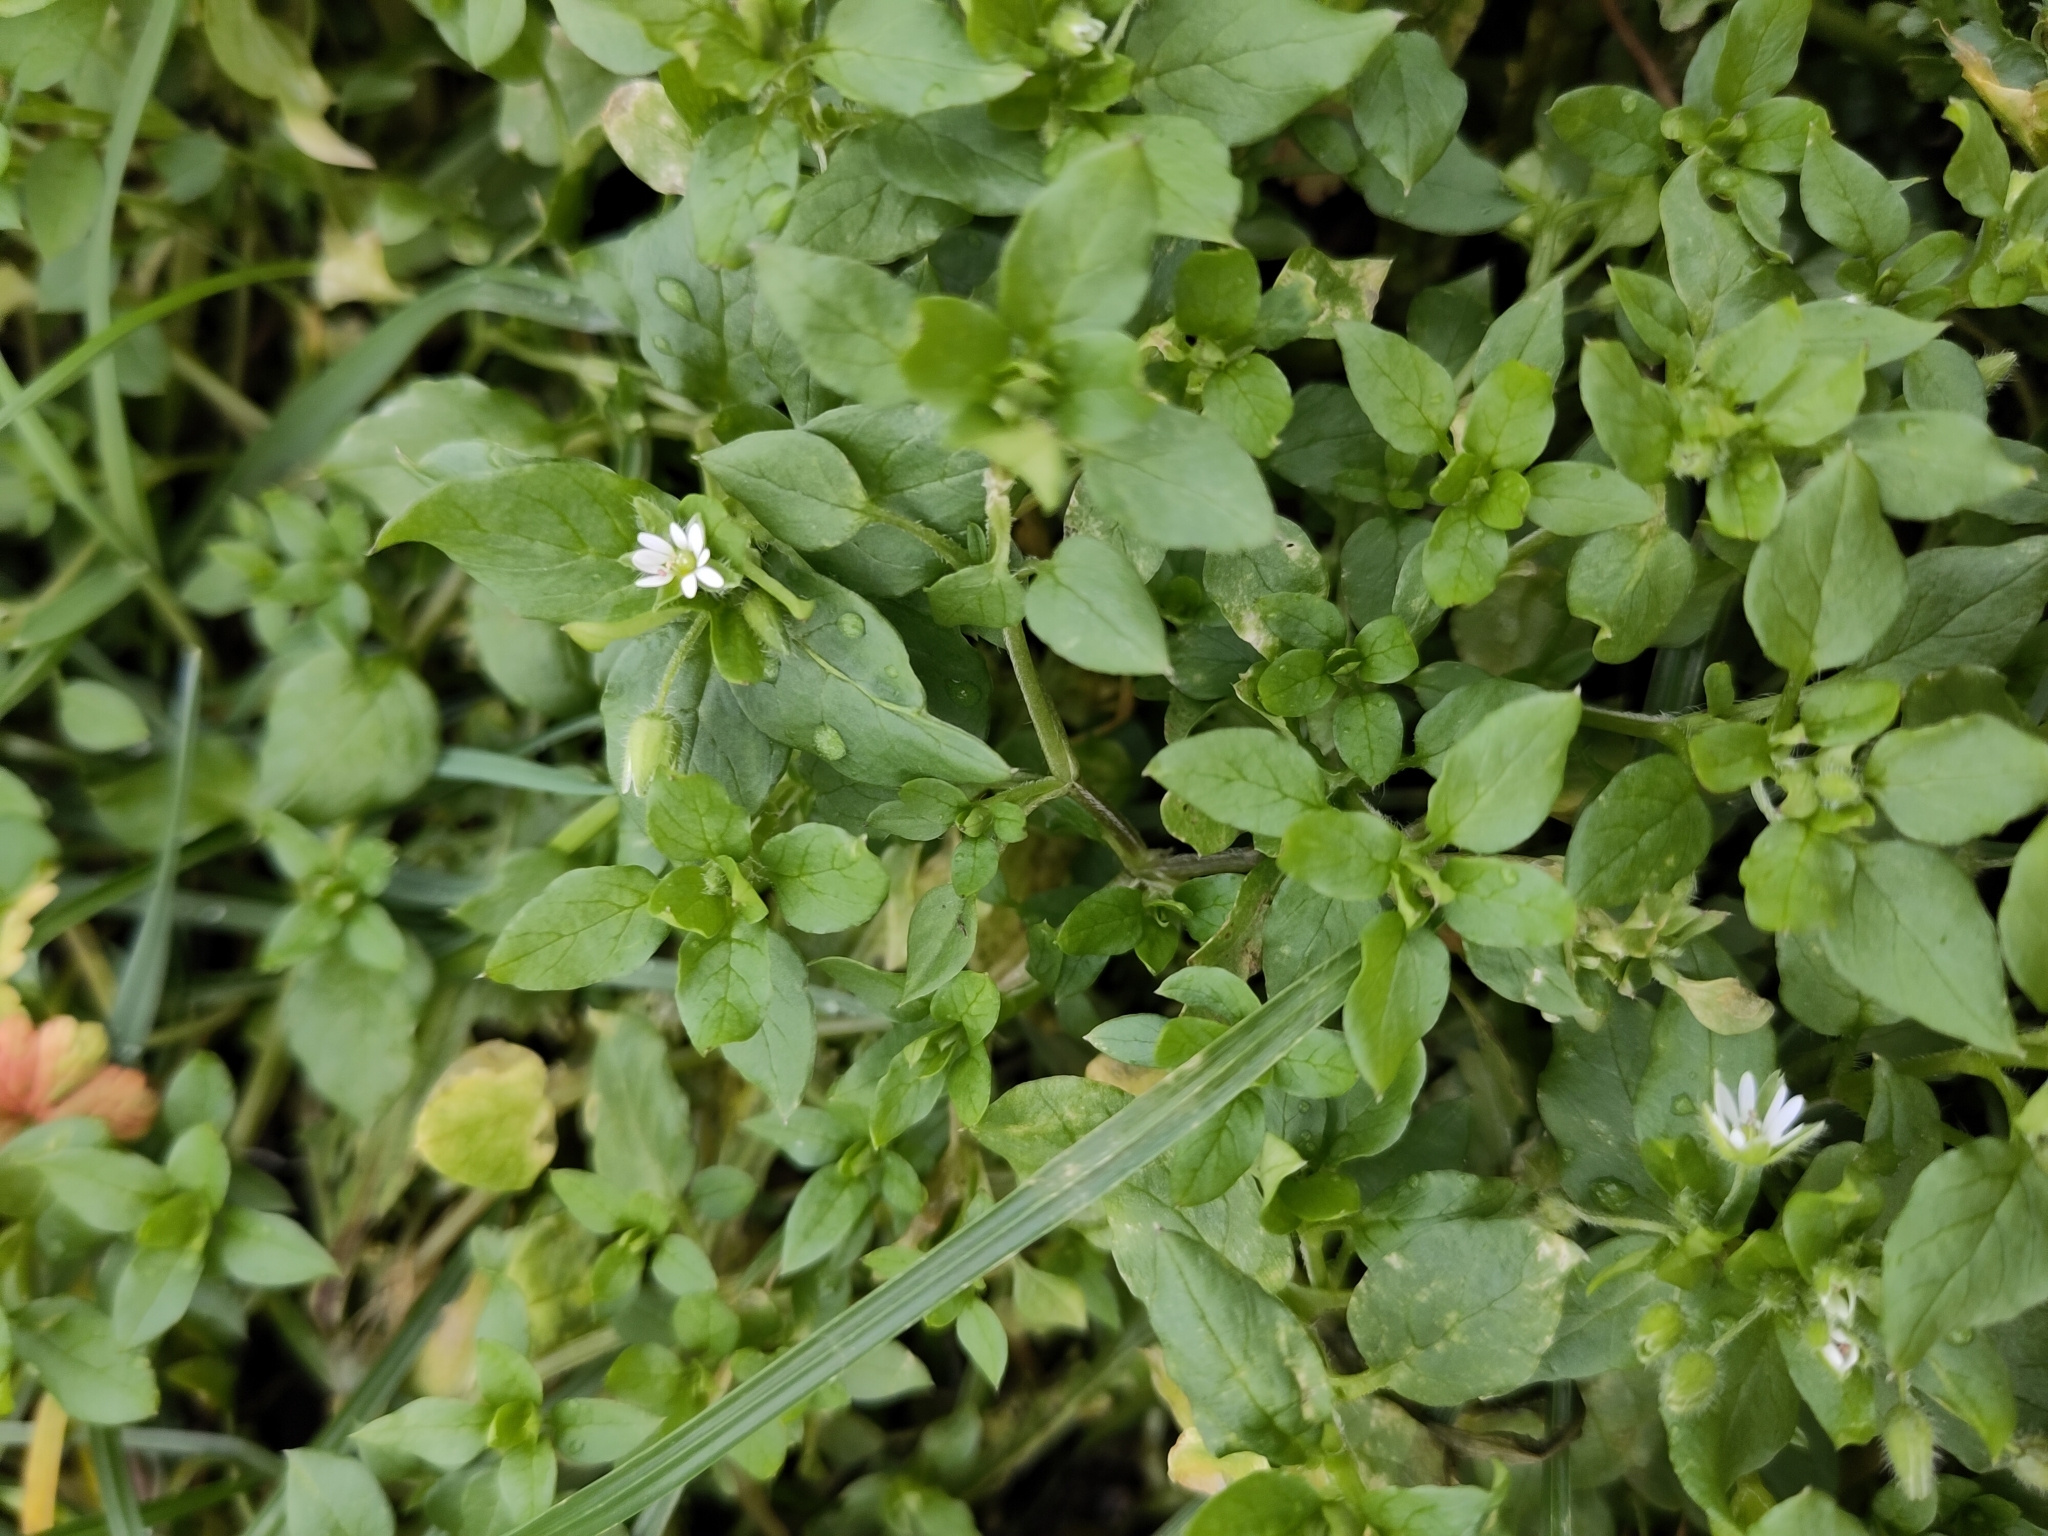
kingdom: Plantae
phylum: Tracheophyta
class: Magnoliopsida
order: Caryophyllales
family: Caryophyllaceae
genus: Stellaria
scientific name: Stellaria media
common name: Common chickweed
